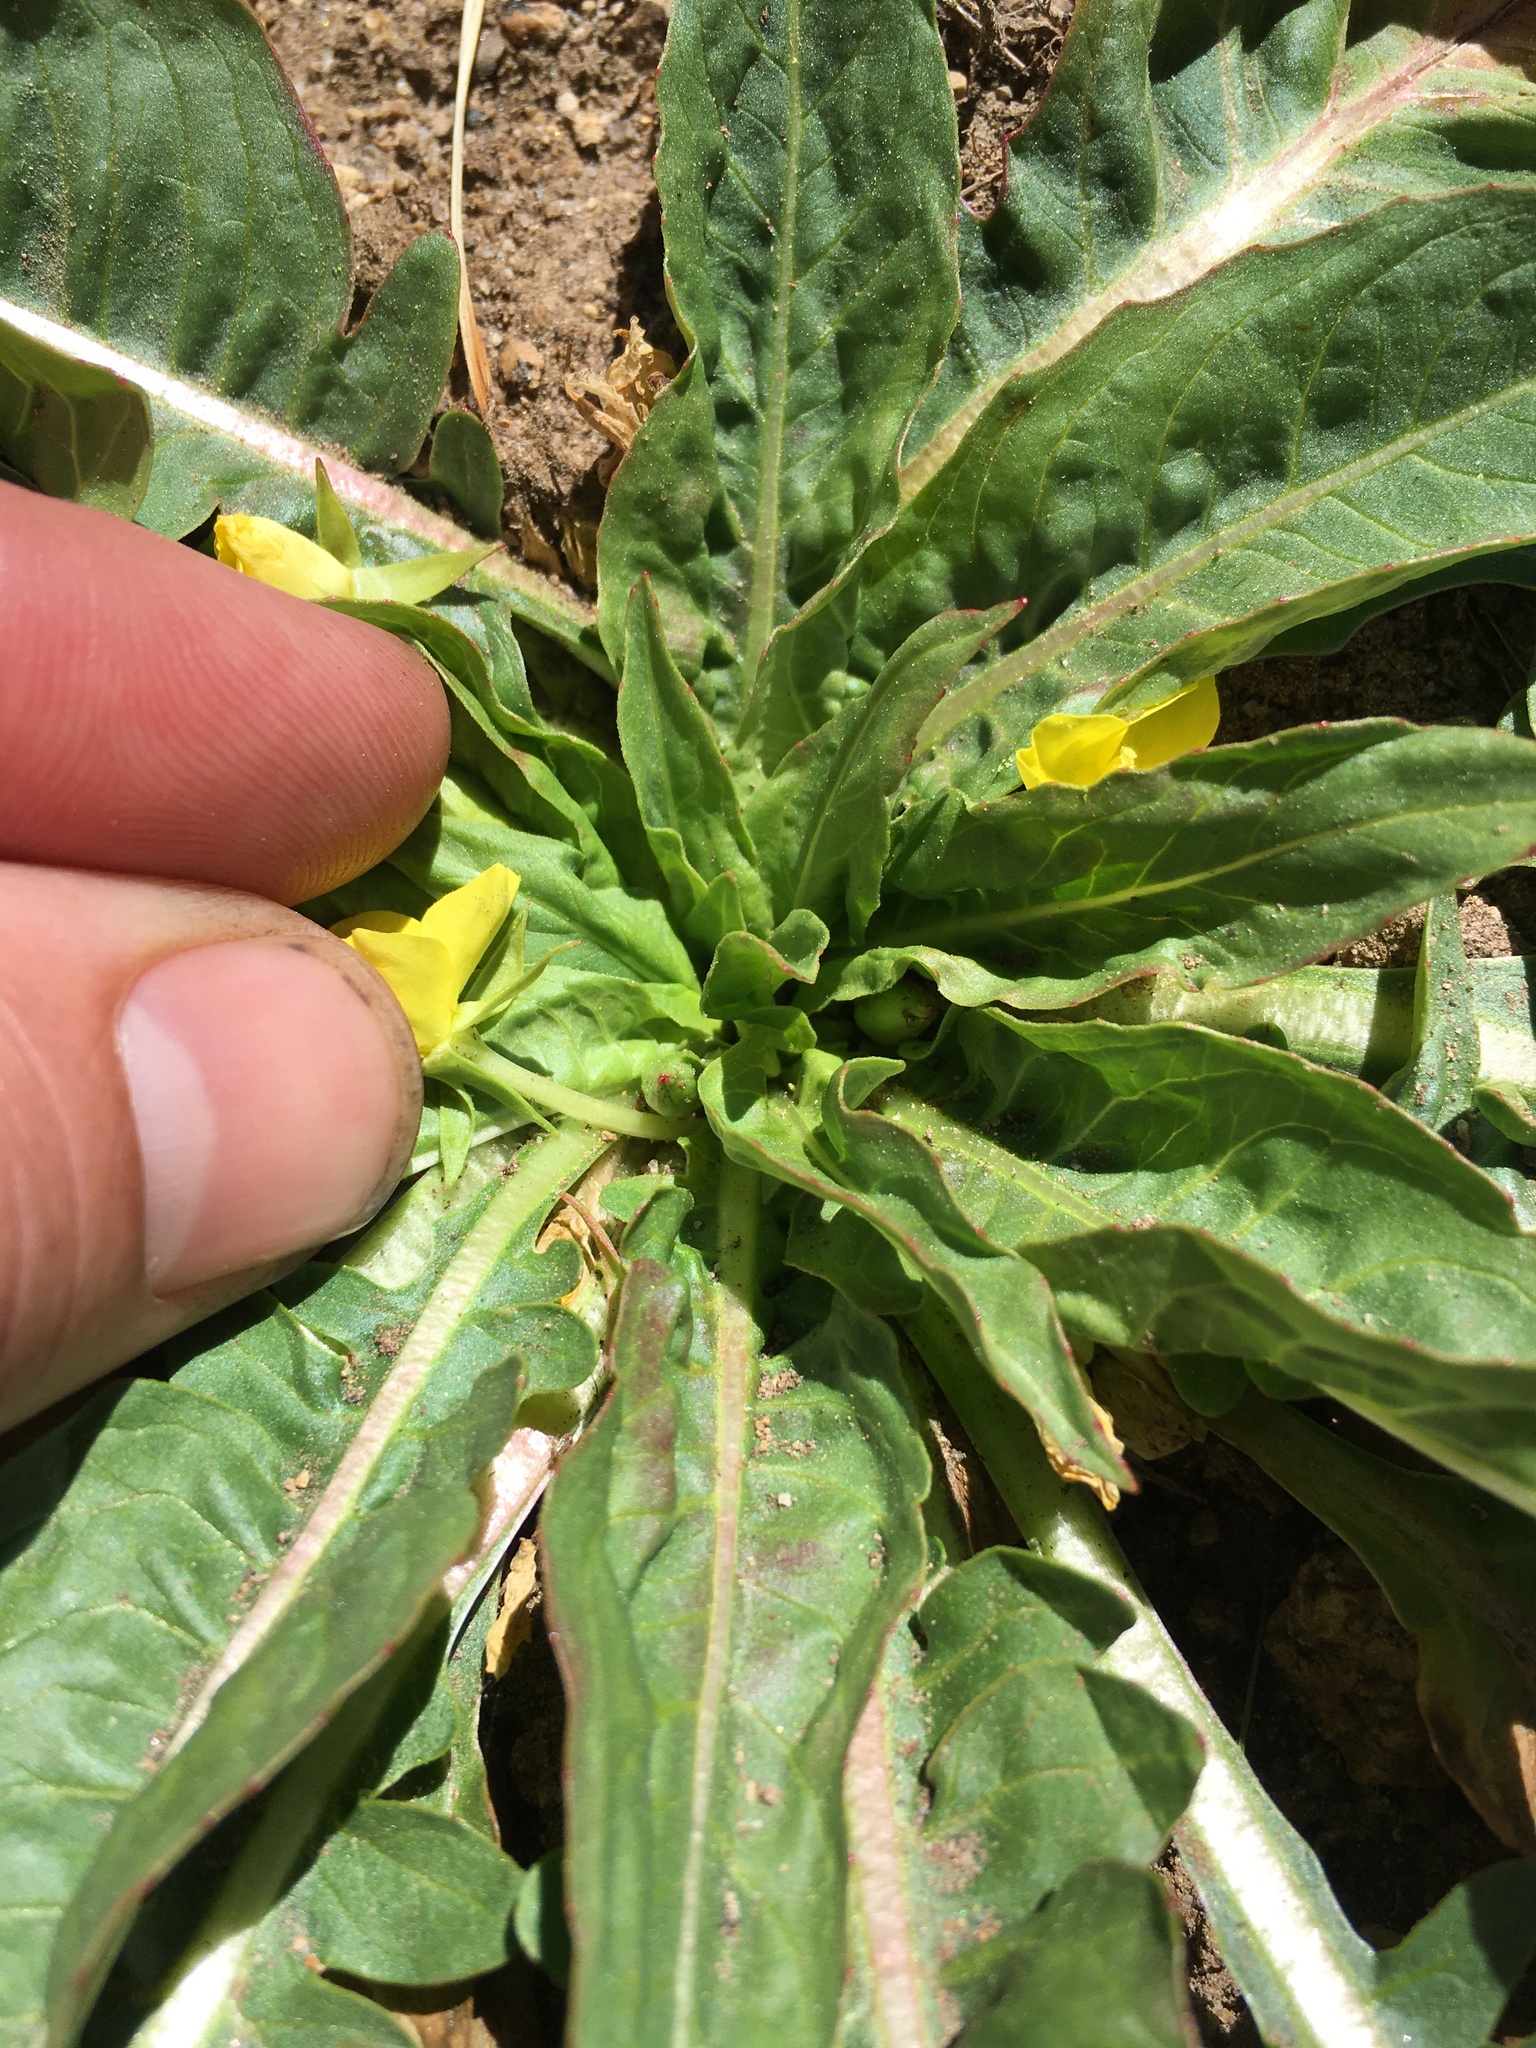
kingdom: Plantae
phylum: Tracheophyta
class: Magnoliopsida
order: Myrtales
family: Onagraceae
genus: Taraxia
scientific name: Taraxia subacaulis
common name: Diffuseflower evening primrose
